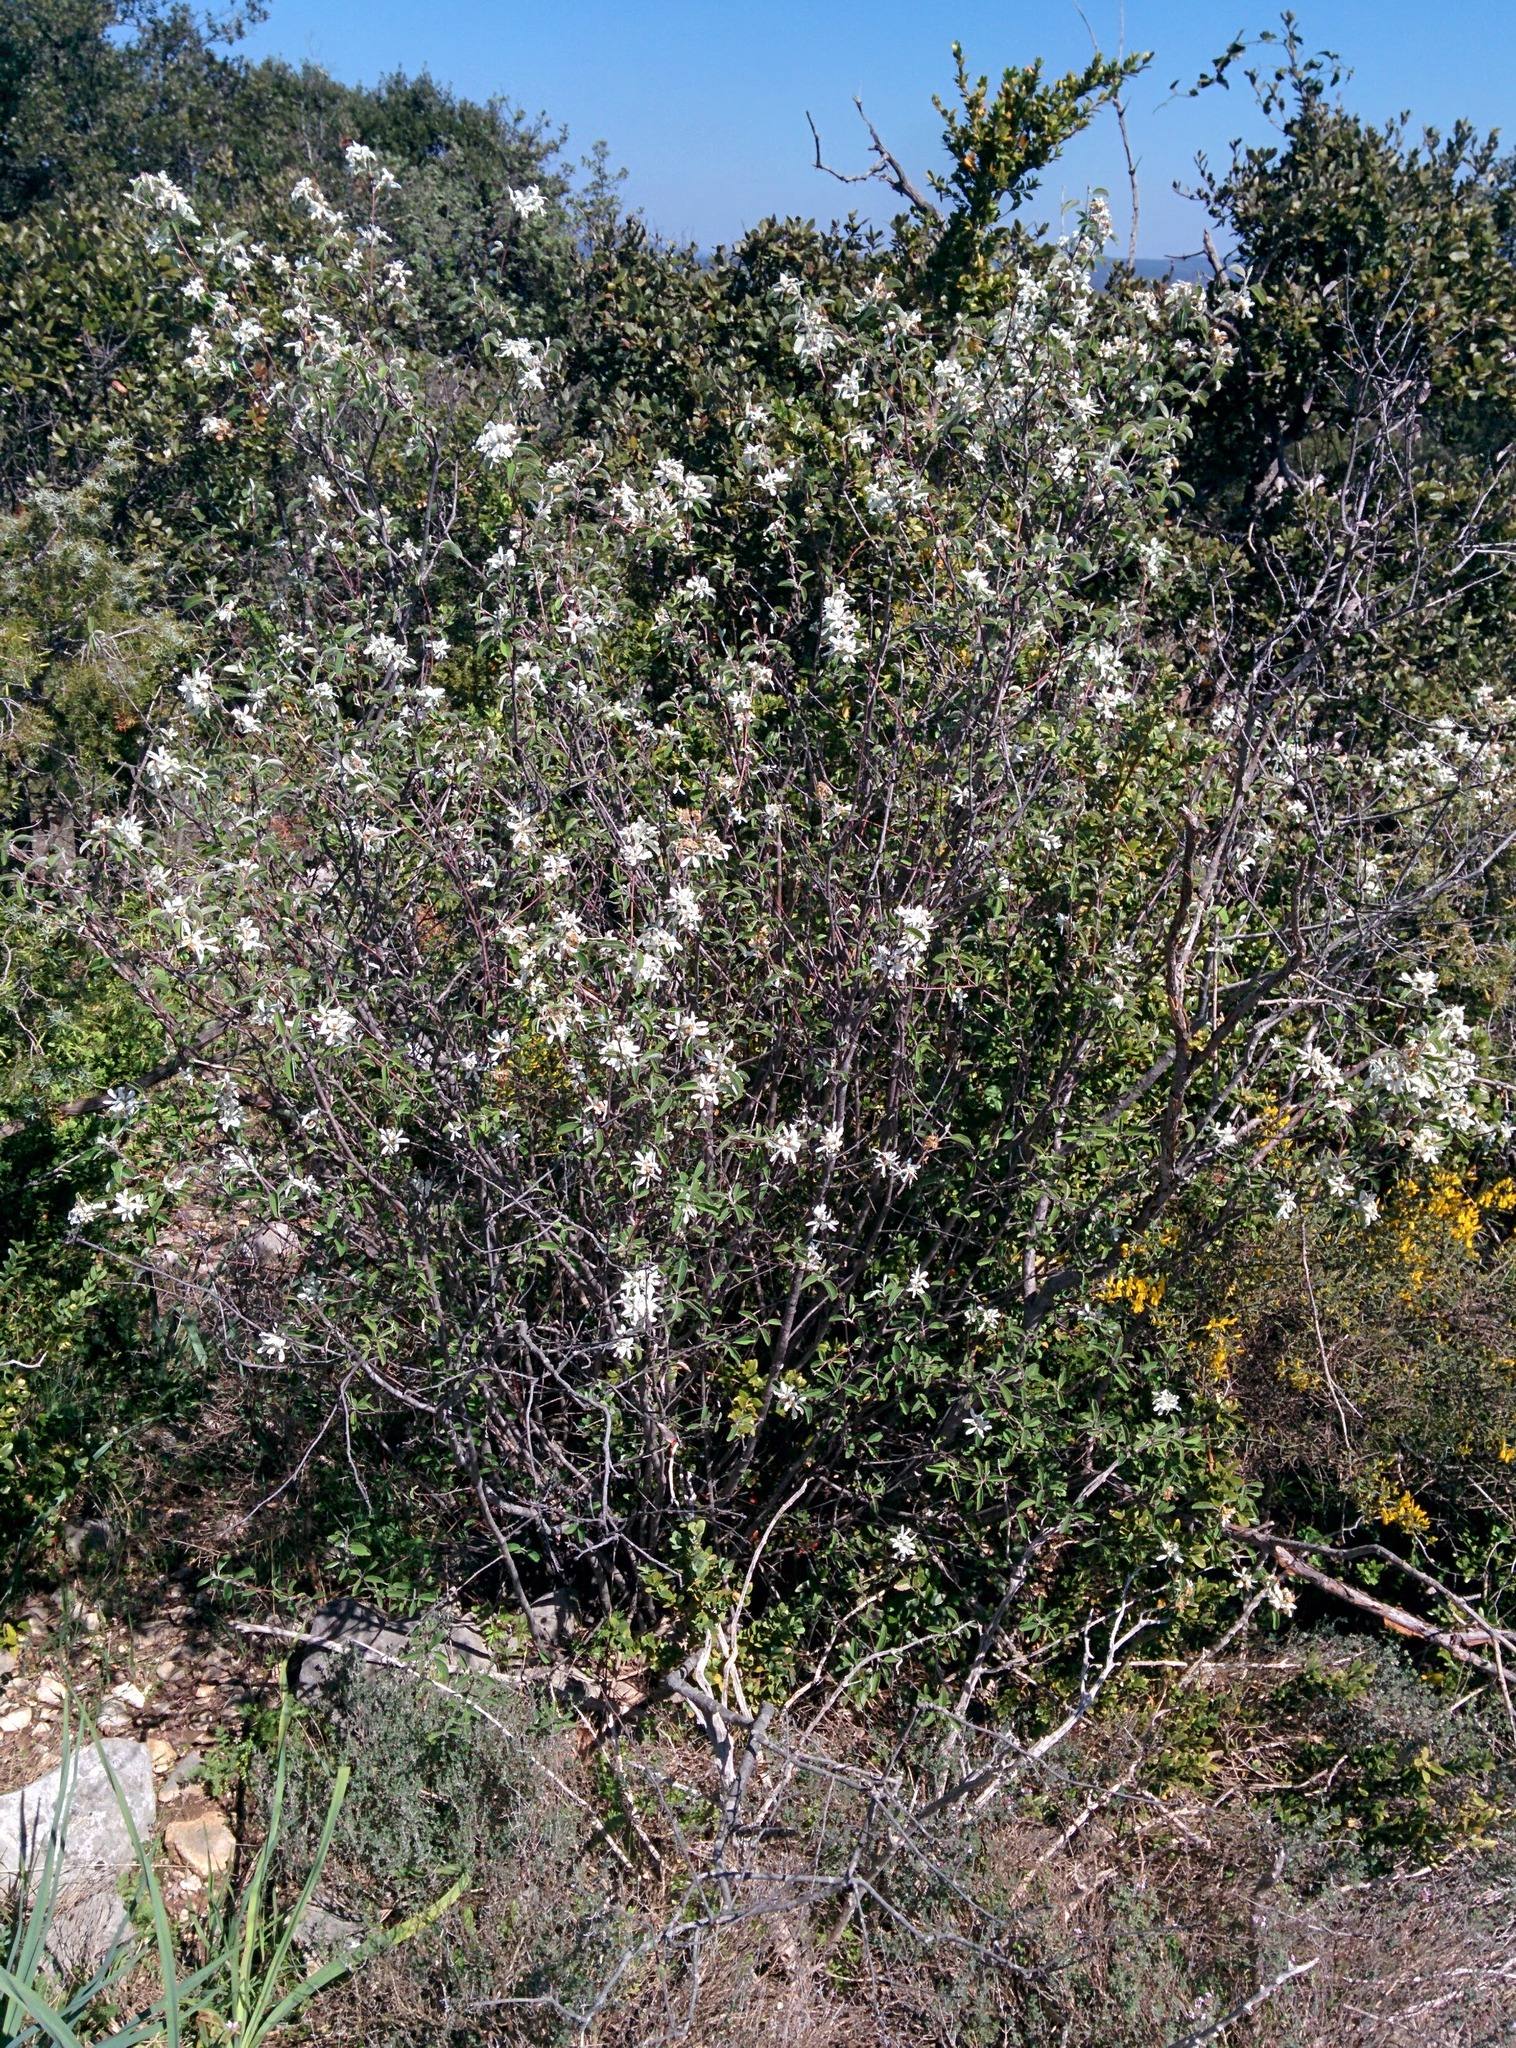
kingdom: Plantae
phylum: Tracheophyta
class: Magnoliopsida
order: Rosales
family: Rosaceae
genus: Amelanchier
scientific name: Amelanchier ovalis
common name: Serviceberry
